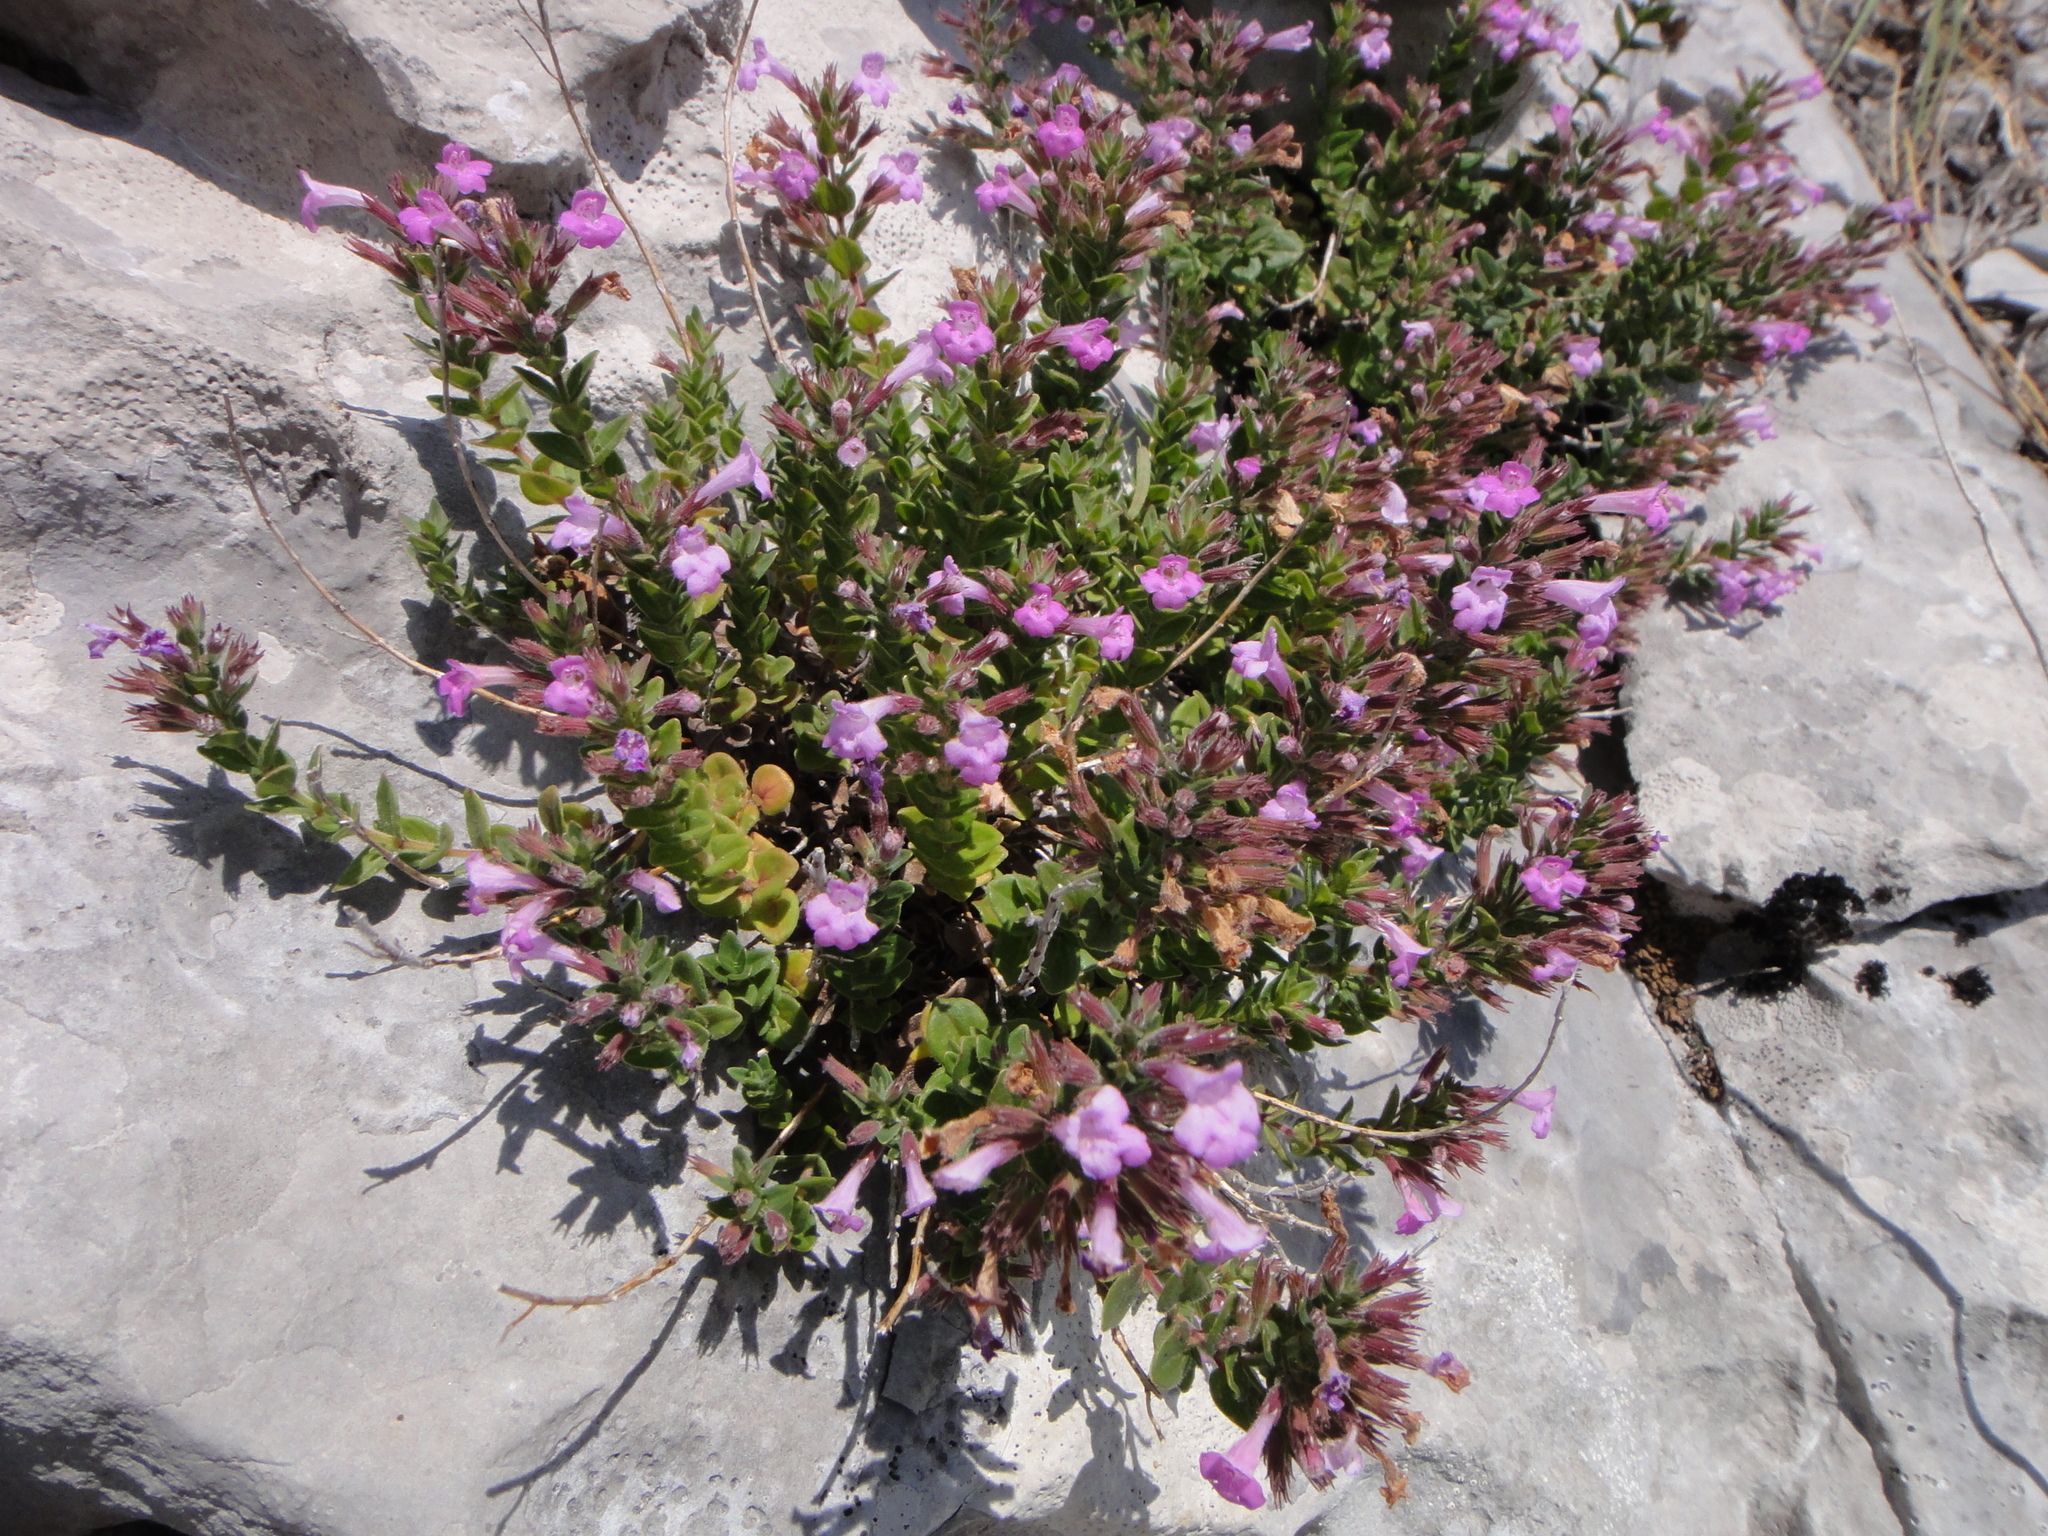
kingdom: Plantae
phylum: Tracheophyta
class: Magnoliopsida
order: Lamiales
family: Lamiaceae
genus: Micromeria
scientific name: Micromeria croatica
